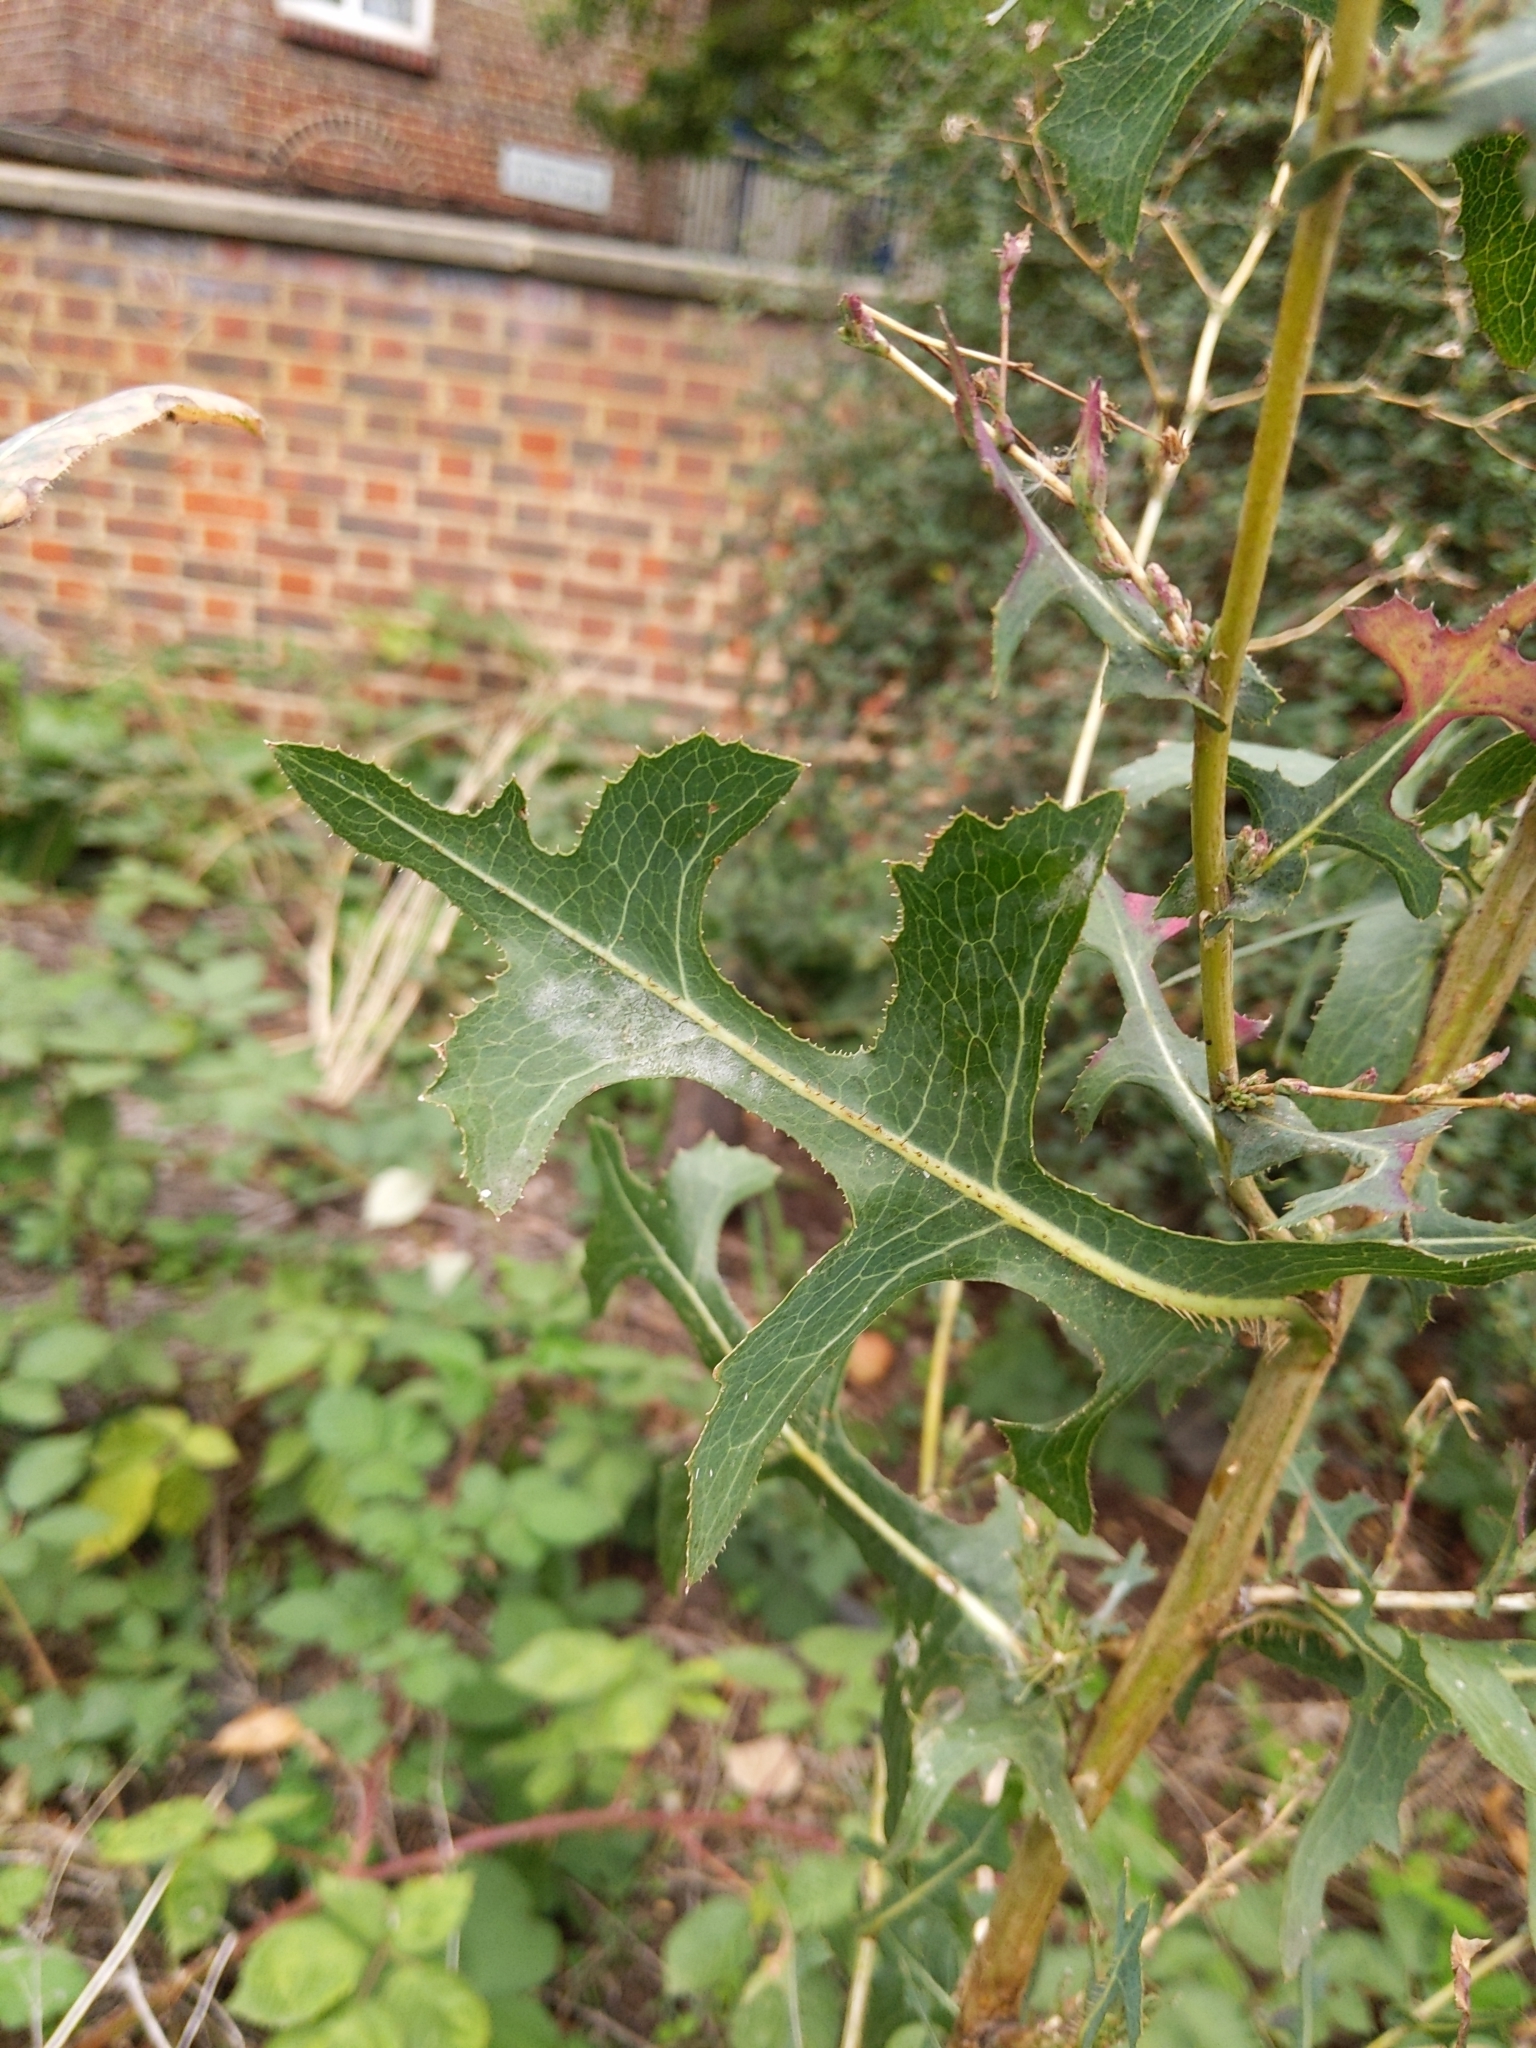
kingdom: Plantae
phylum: Tracheophyta
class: Magnoliopsida
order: Asterales
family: Asteraceae
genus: Lactuca
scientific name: Lactuca serriola
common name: Prickly lettuce
